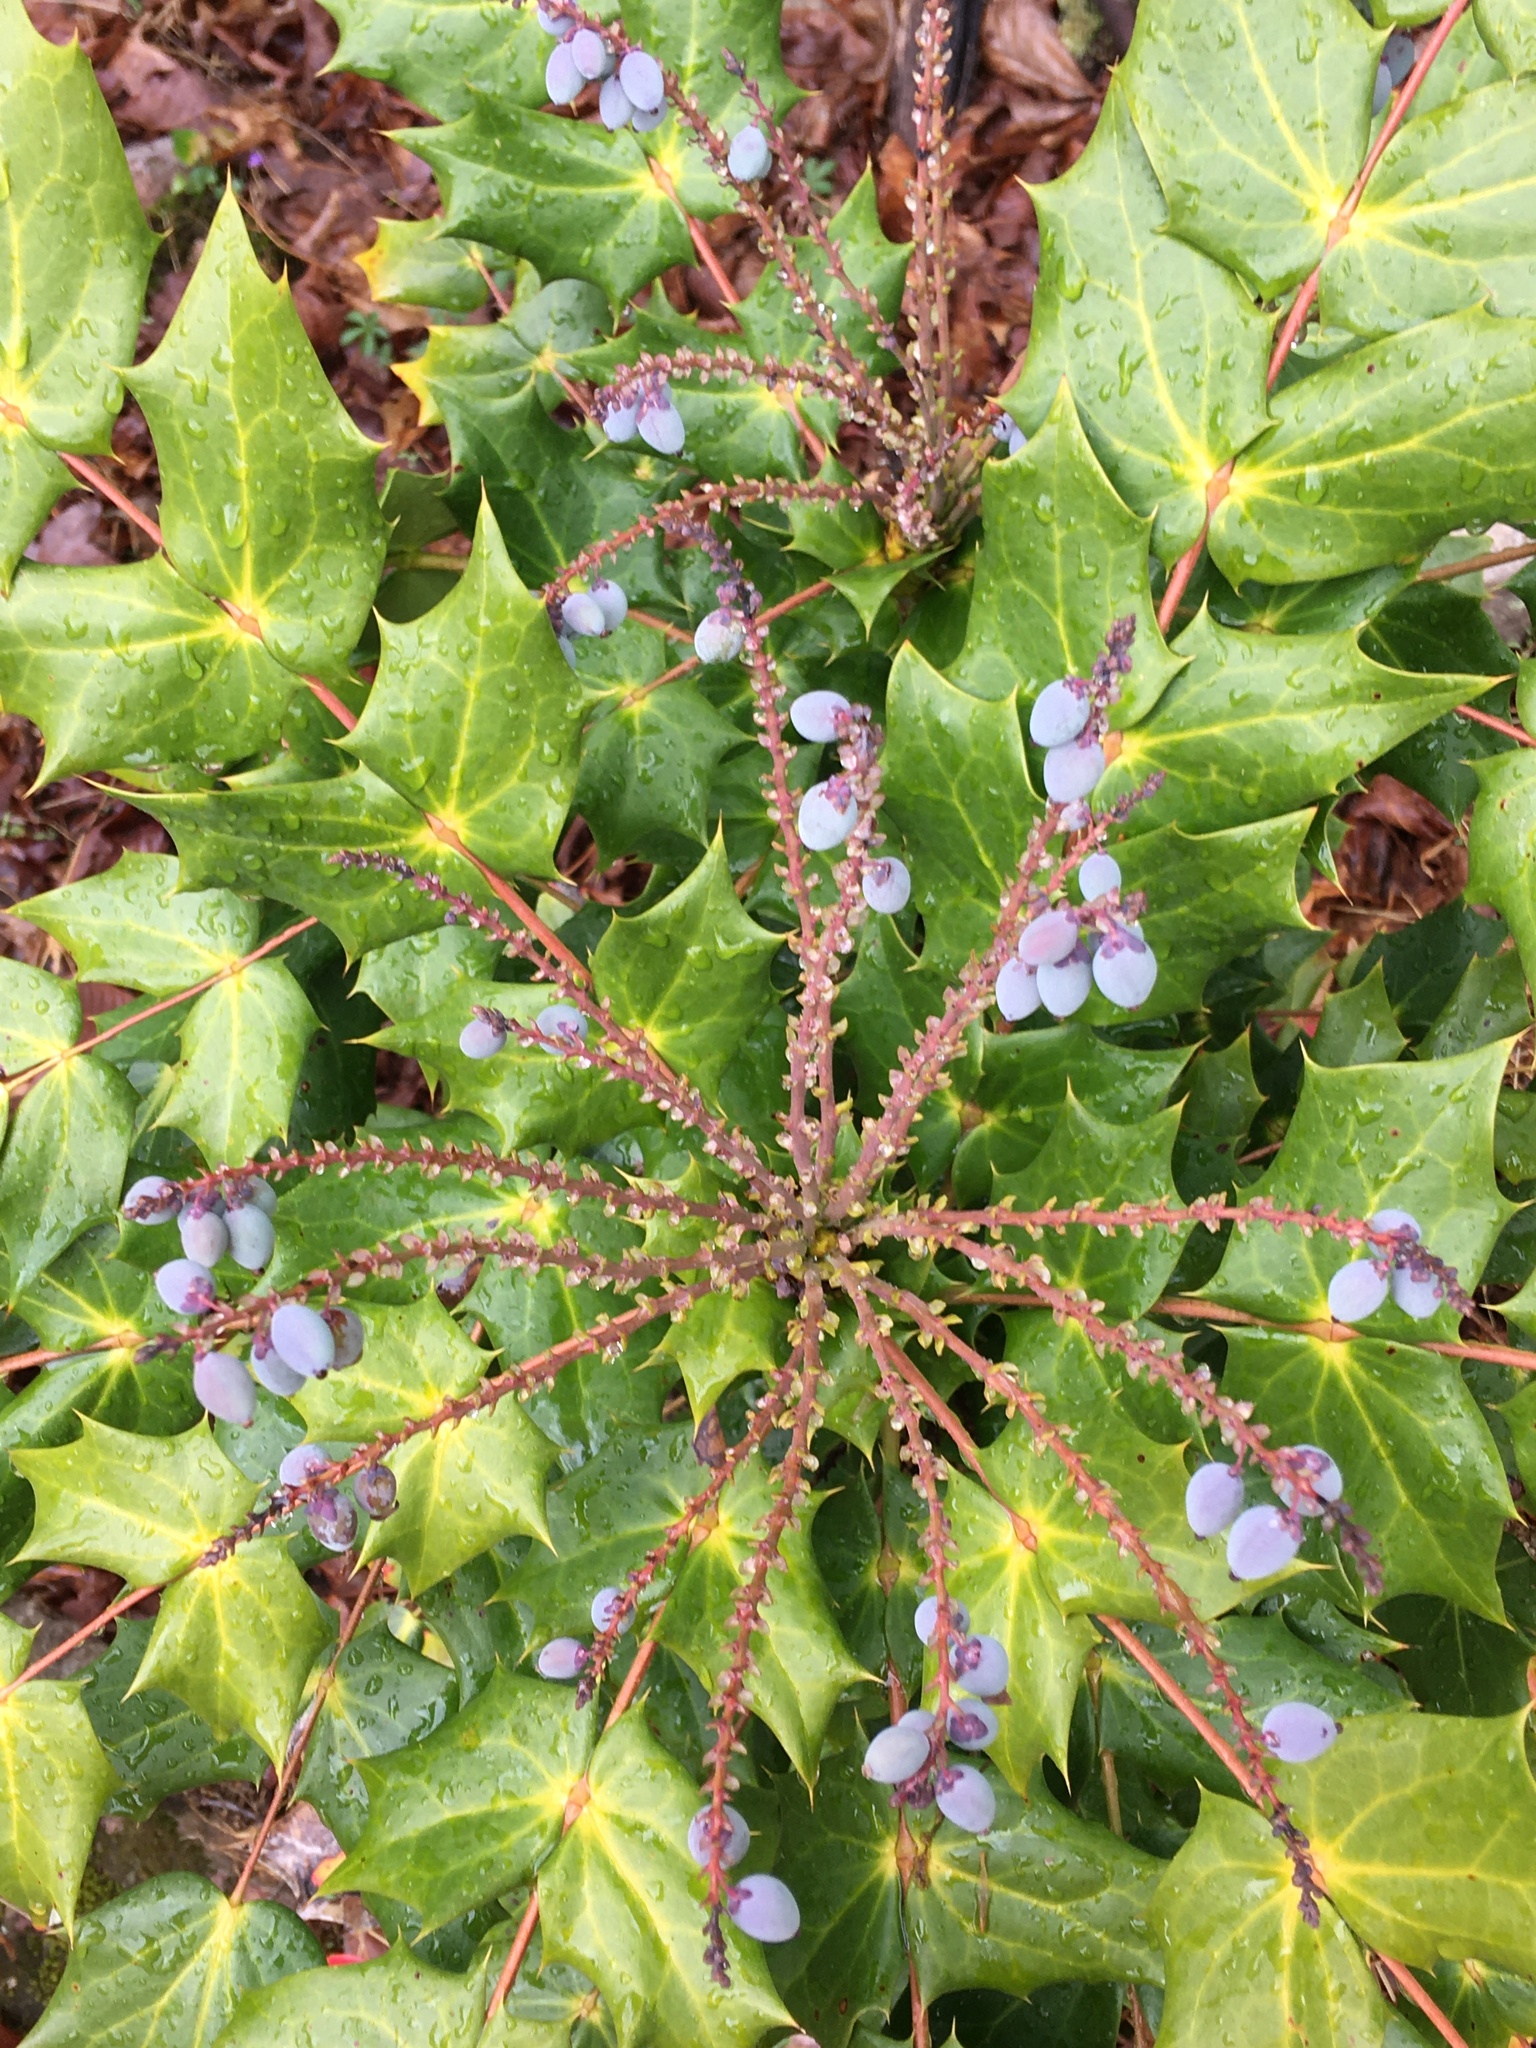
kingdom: Plantae
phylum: Tracheophyta
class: Magnoliopsida
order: Ranunculales
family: Berberidaceae
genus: Mahonia
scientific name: Mahonia bealei
